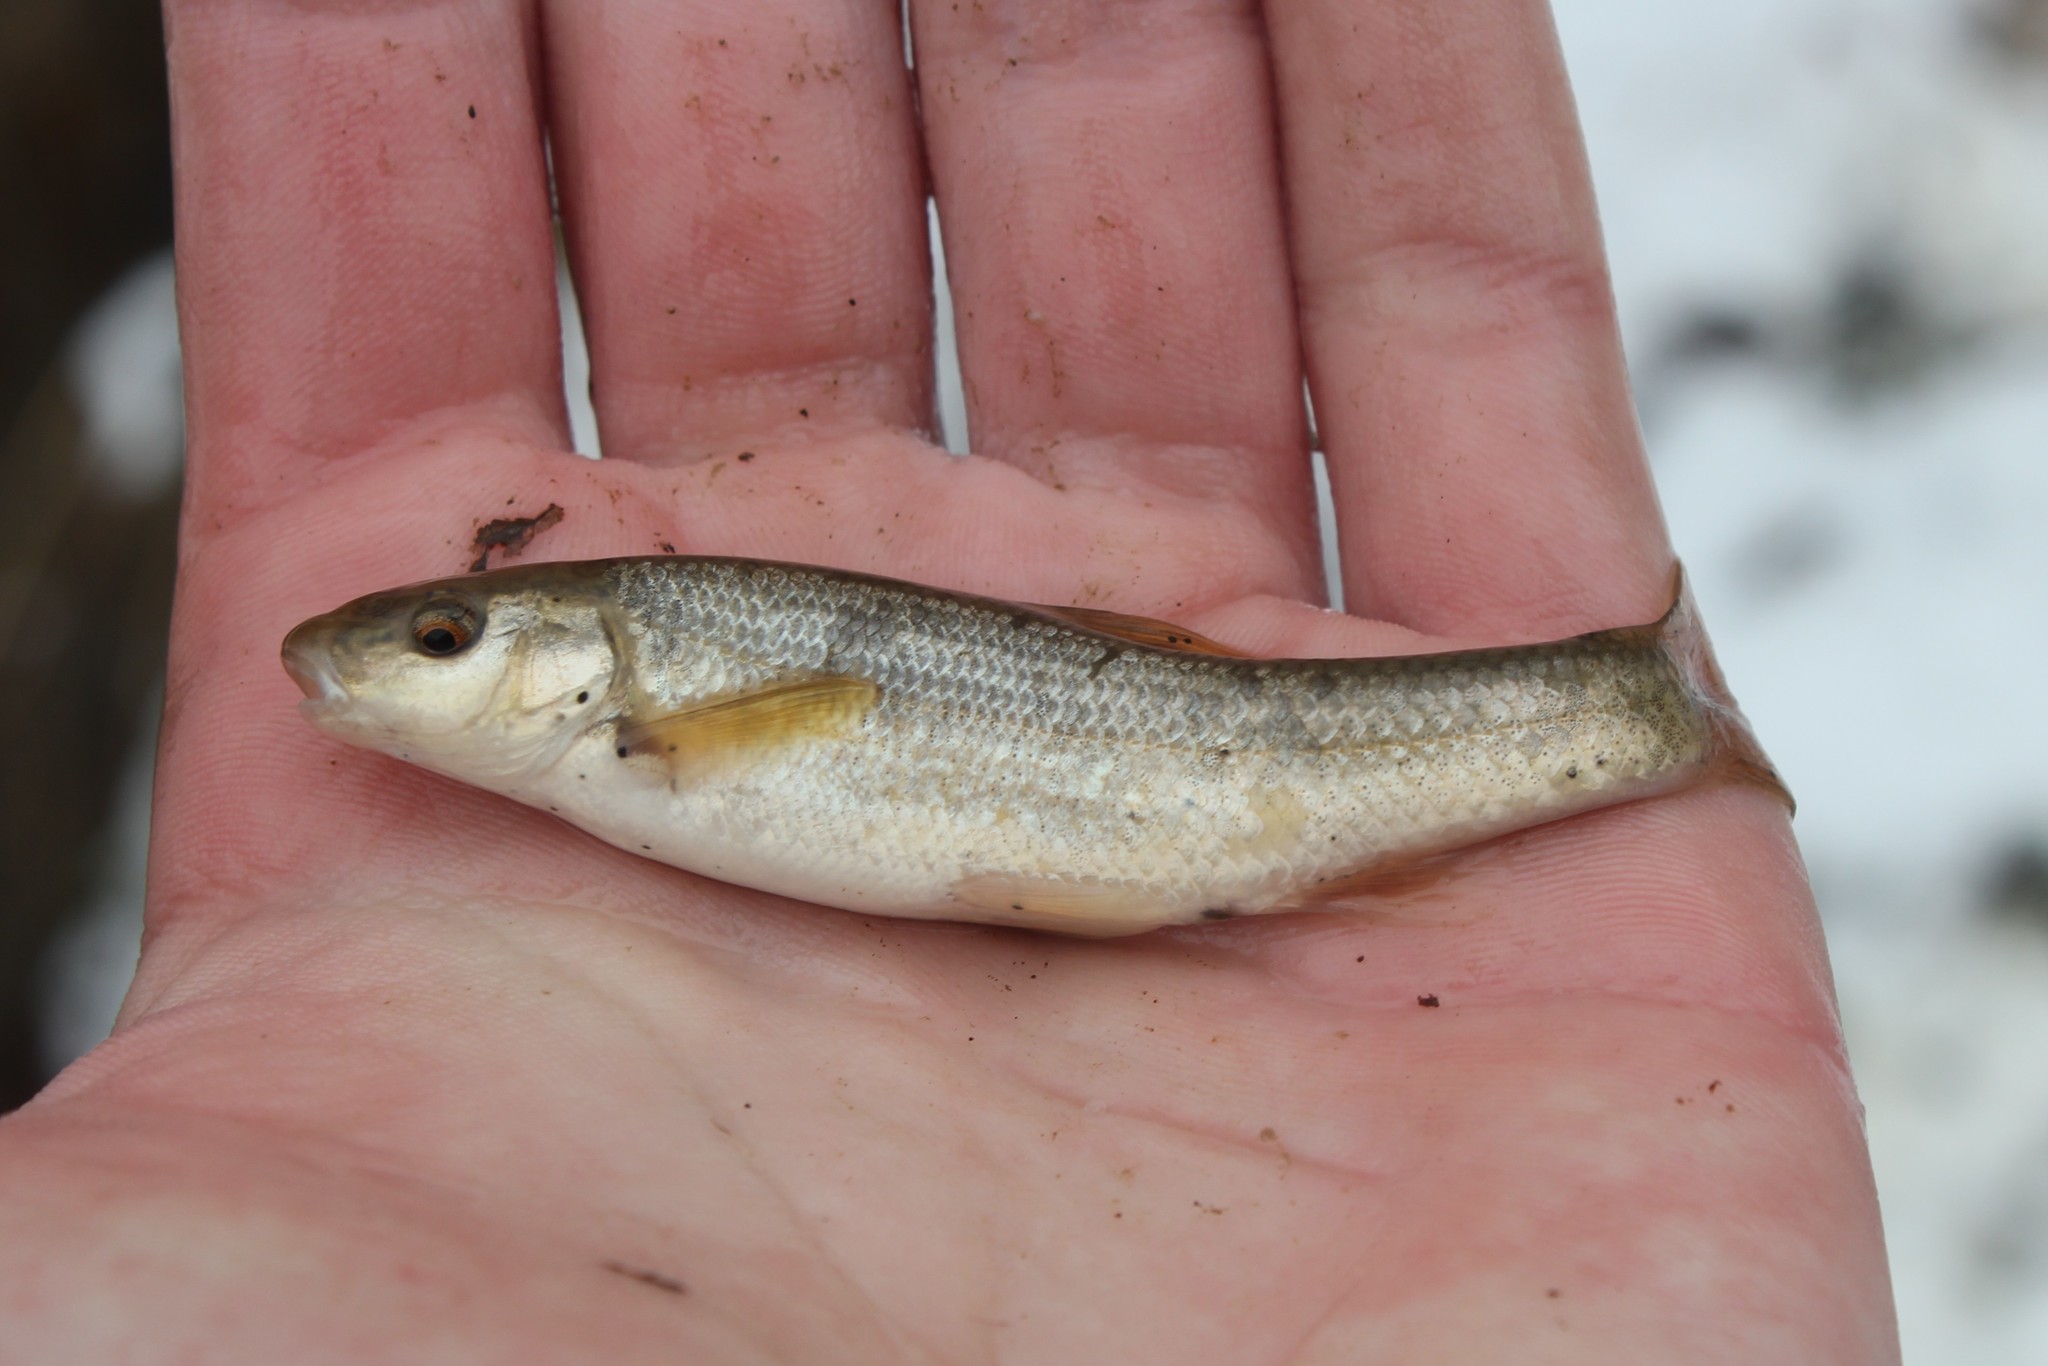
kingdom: Animalia
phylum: Chordata
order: Cypriniformes
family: Cyprinidae
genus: Campostoma
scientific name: Campostoma anomalum
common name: Central stoneroller
